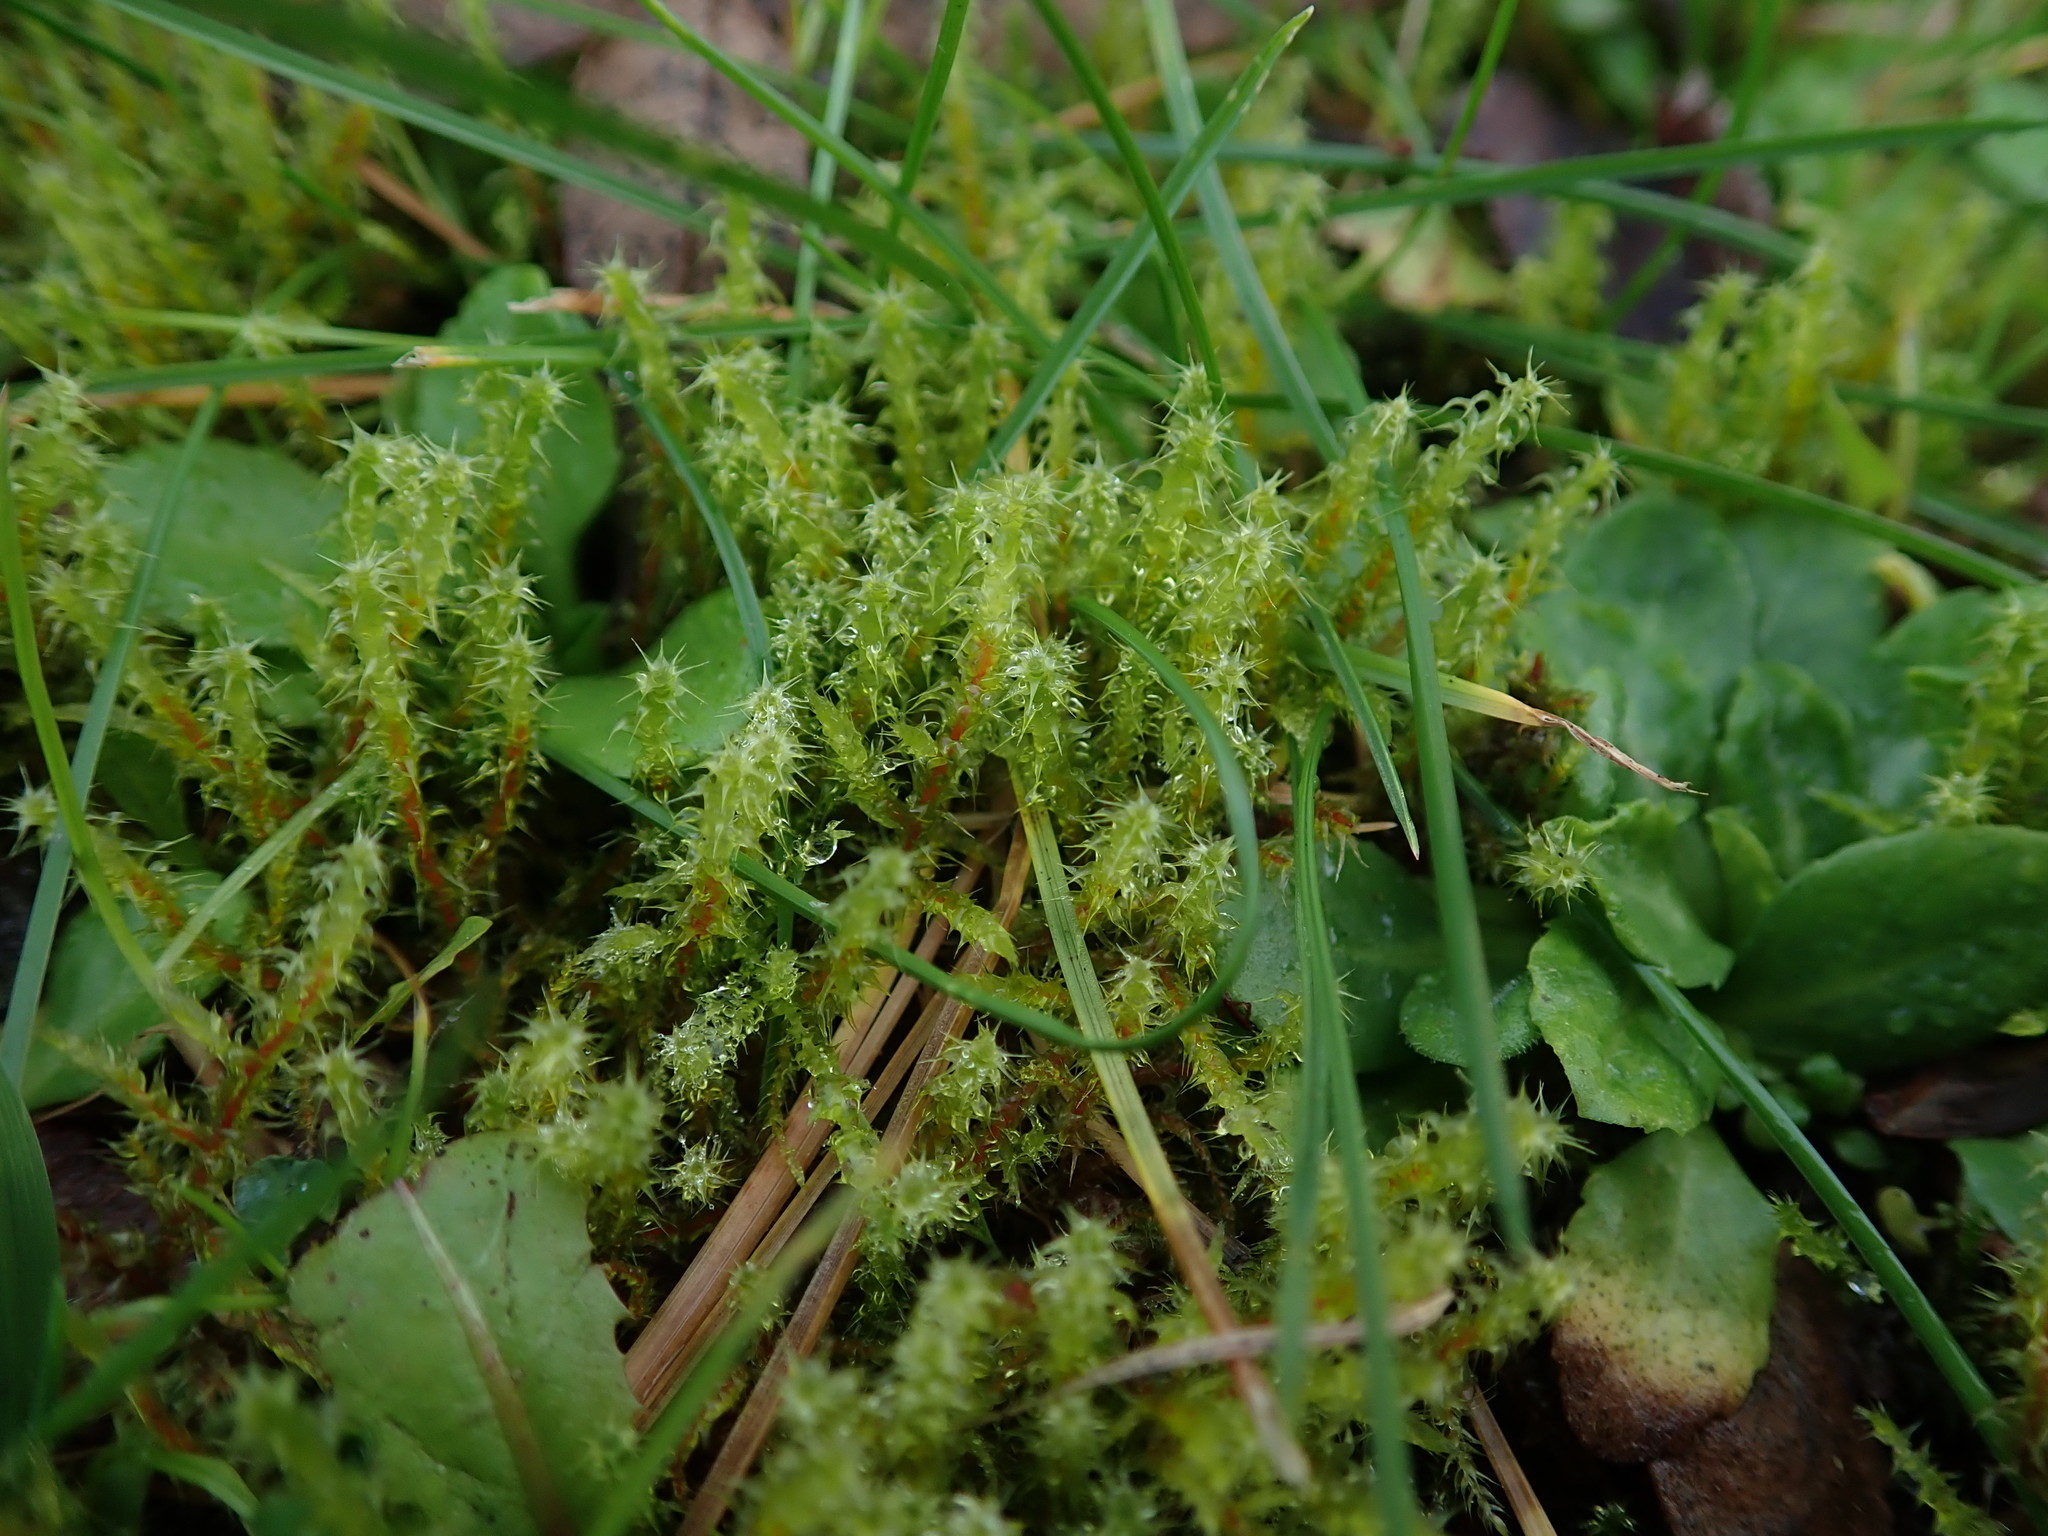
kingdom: Plantae
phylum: Bryophyta
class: Bryopsida
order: Hypnales
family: Hylocomiaceae
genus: Rhytidiadelphus
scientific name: Rhytidiadelphus squarrosus
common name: Springy turf-moss
